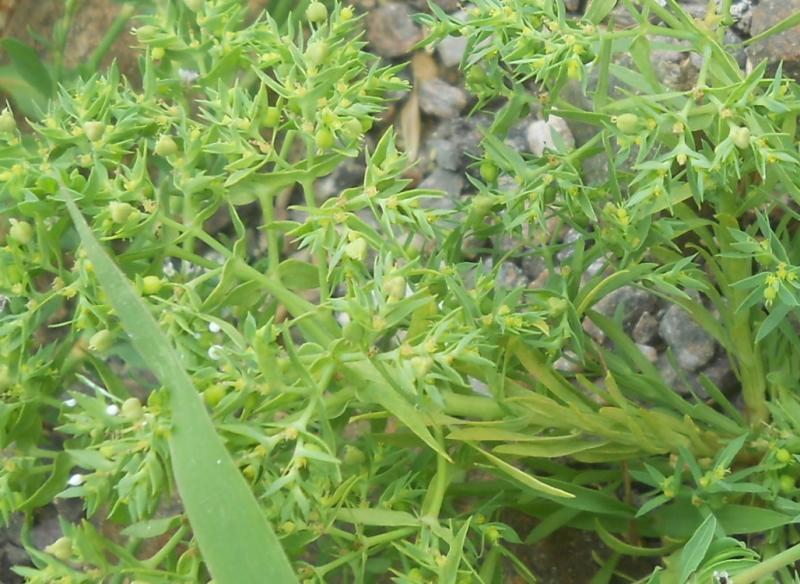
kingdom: Plantae
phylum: Tracheophyta
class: Magnoliopsida
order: Malpighiales
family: Euphorbiaceae
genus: Euphorbia
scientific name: Euphorbia exigua
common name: Dwarf spurge
